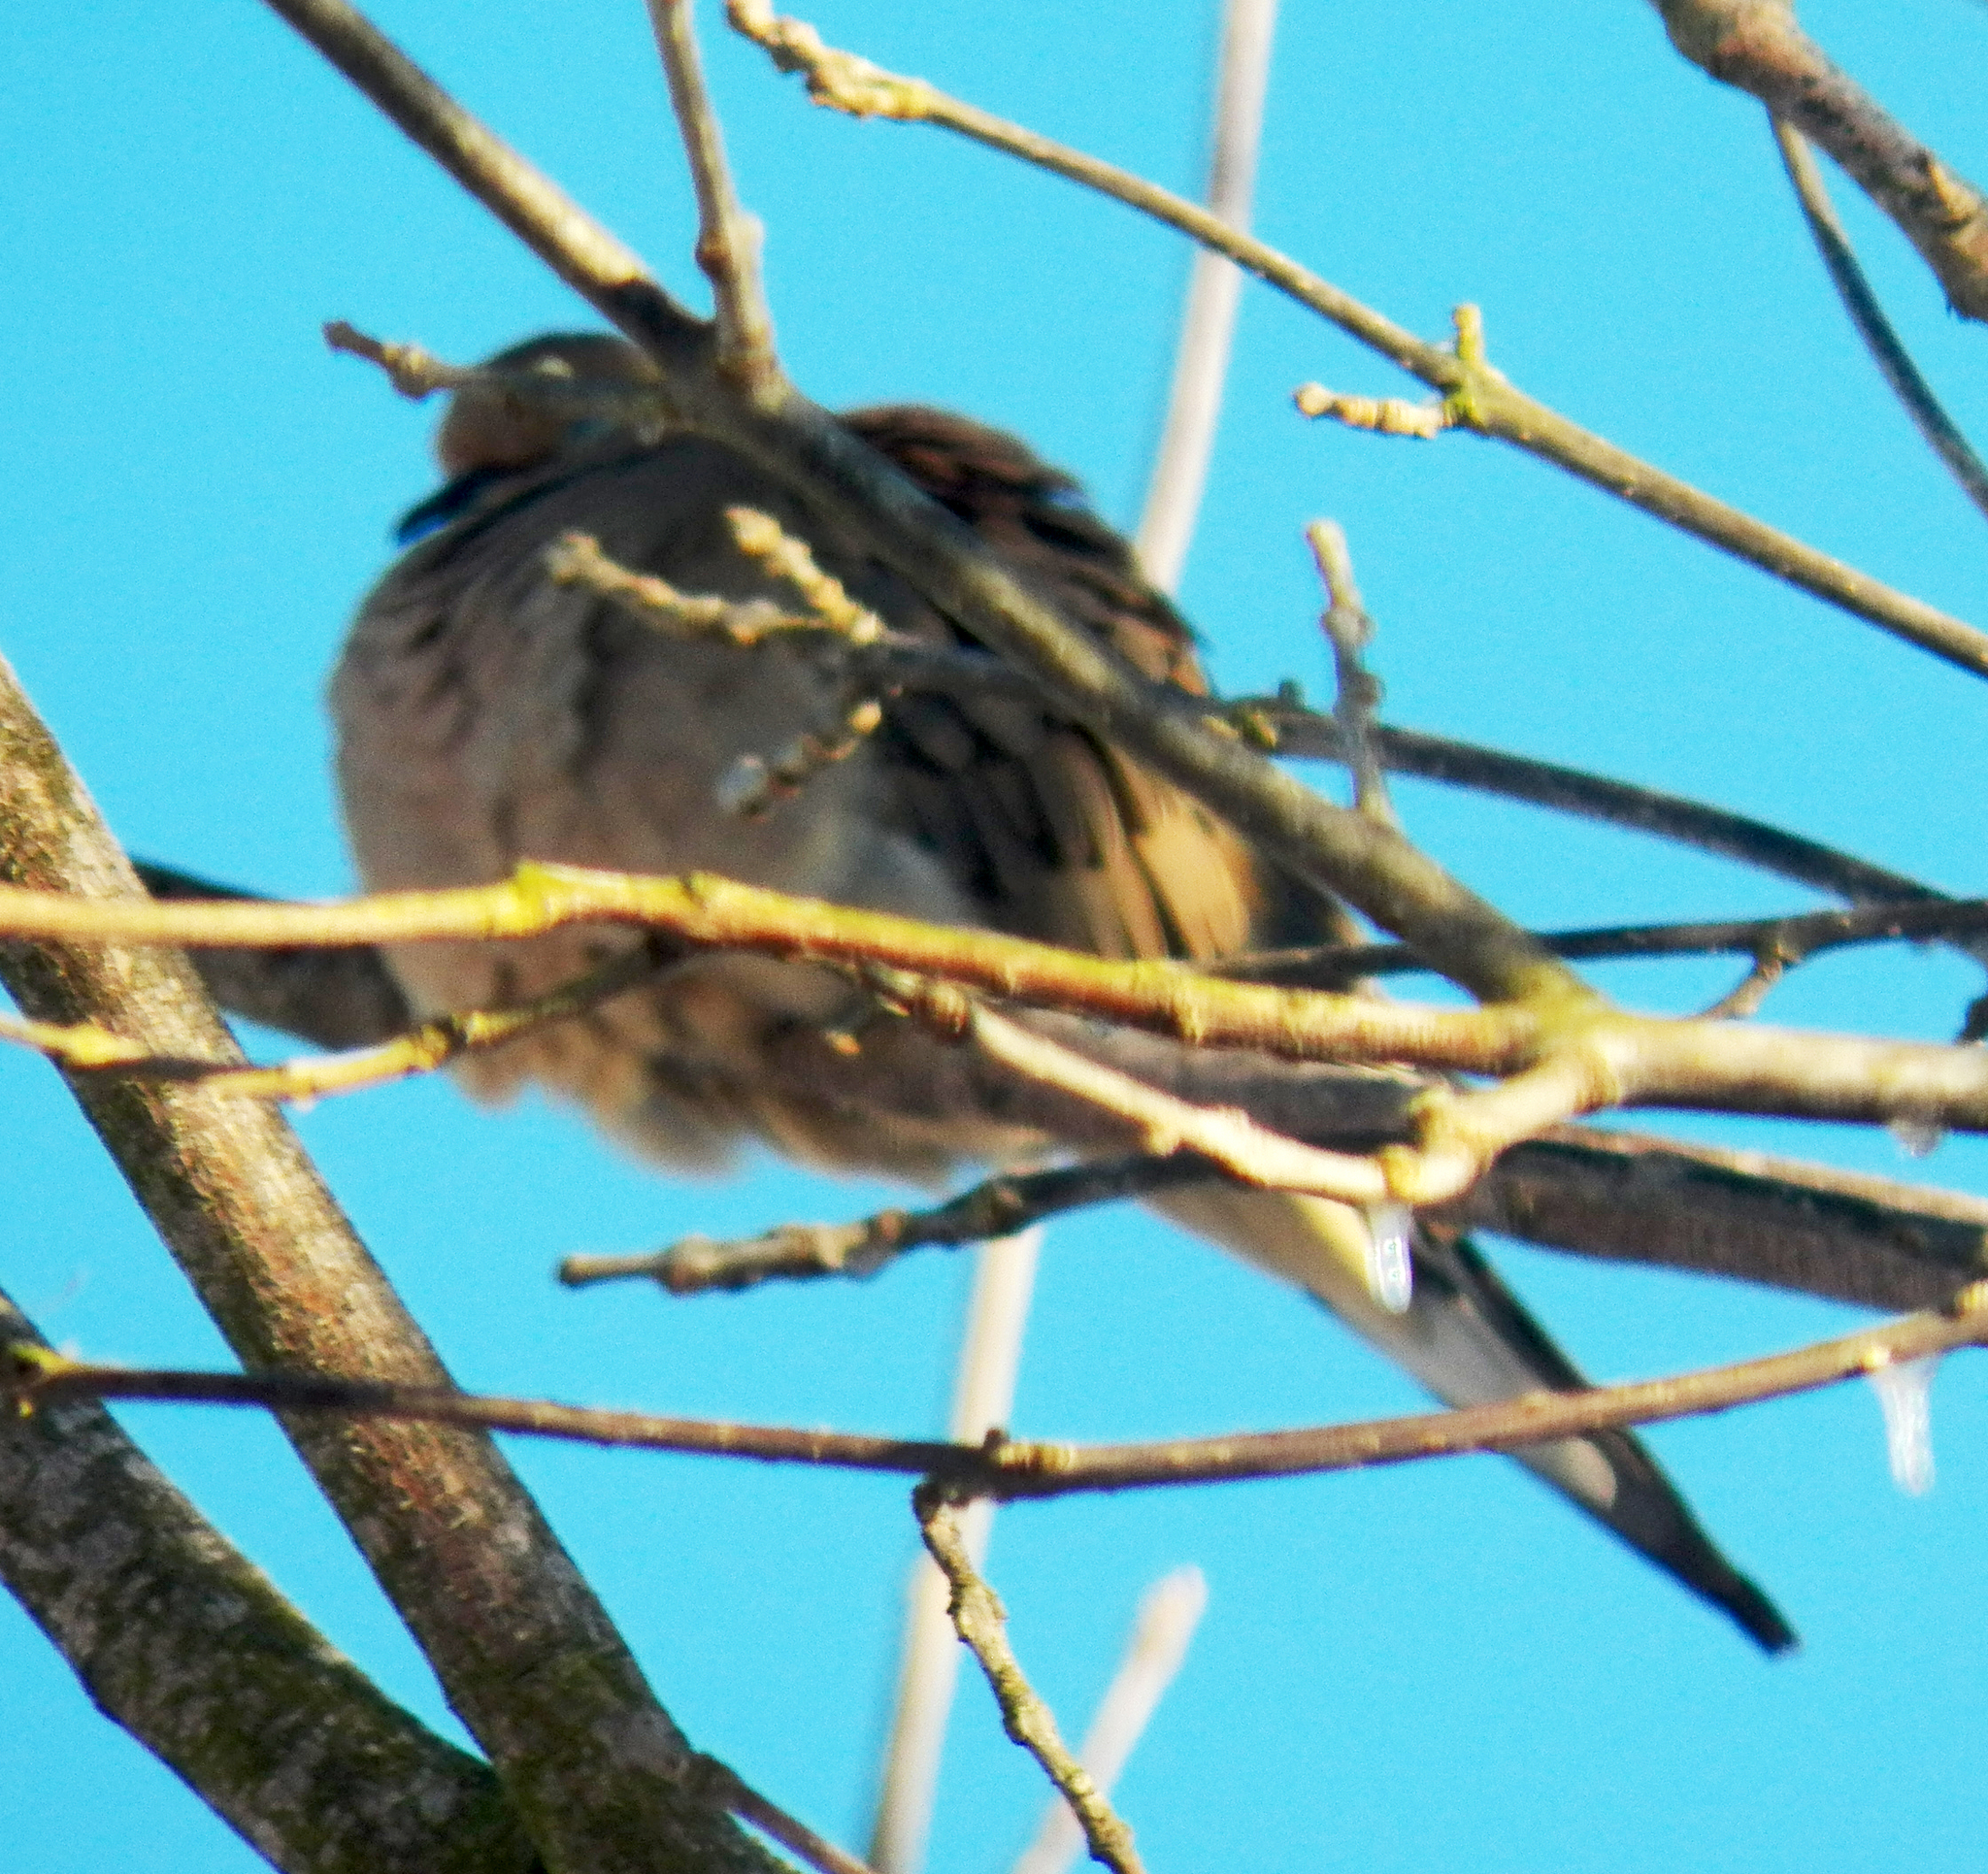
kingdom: Animalia
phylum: Chordata
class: Aves
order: Columbiformes
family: Columbidae
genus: Zenaida
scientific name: Zenaida macroura
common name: Mourning dove
